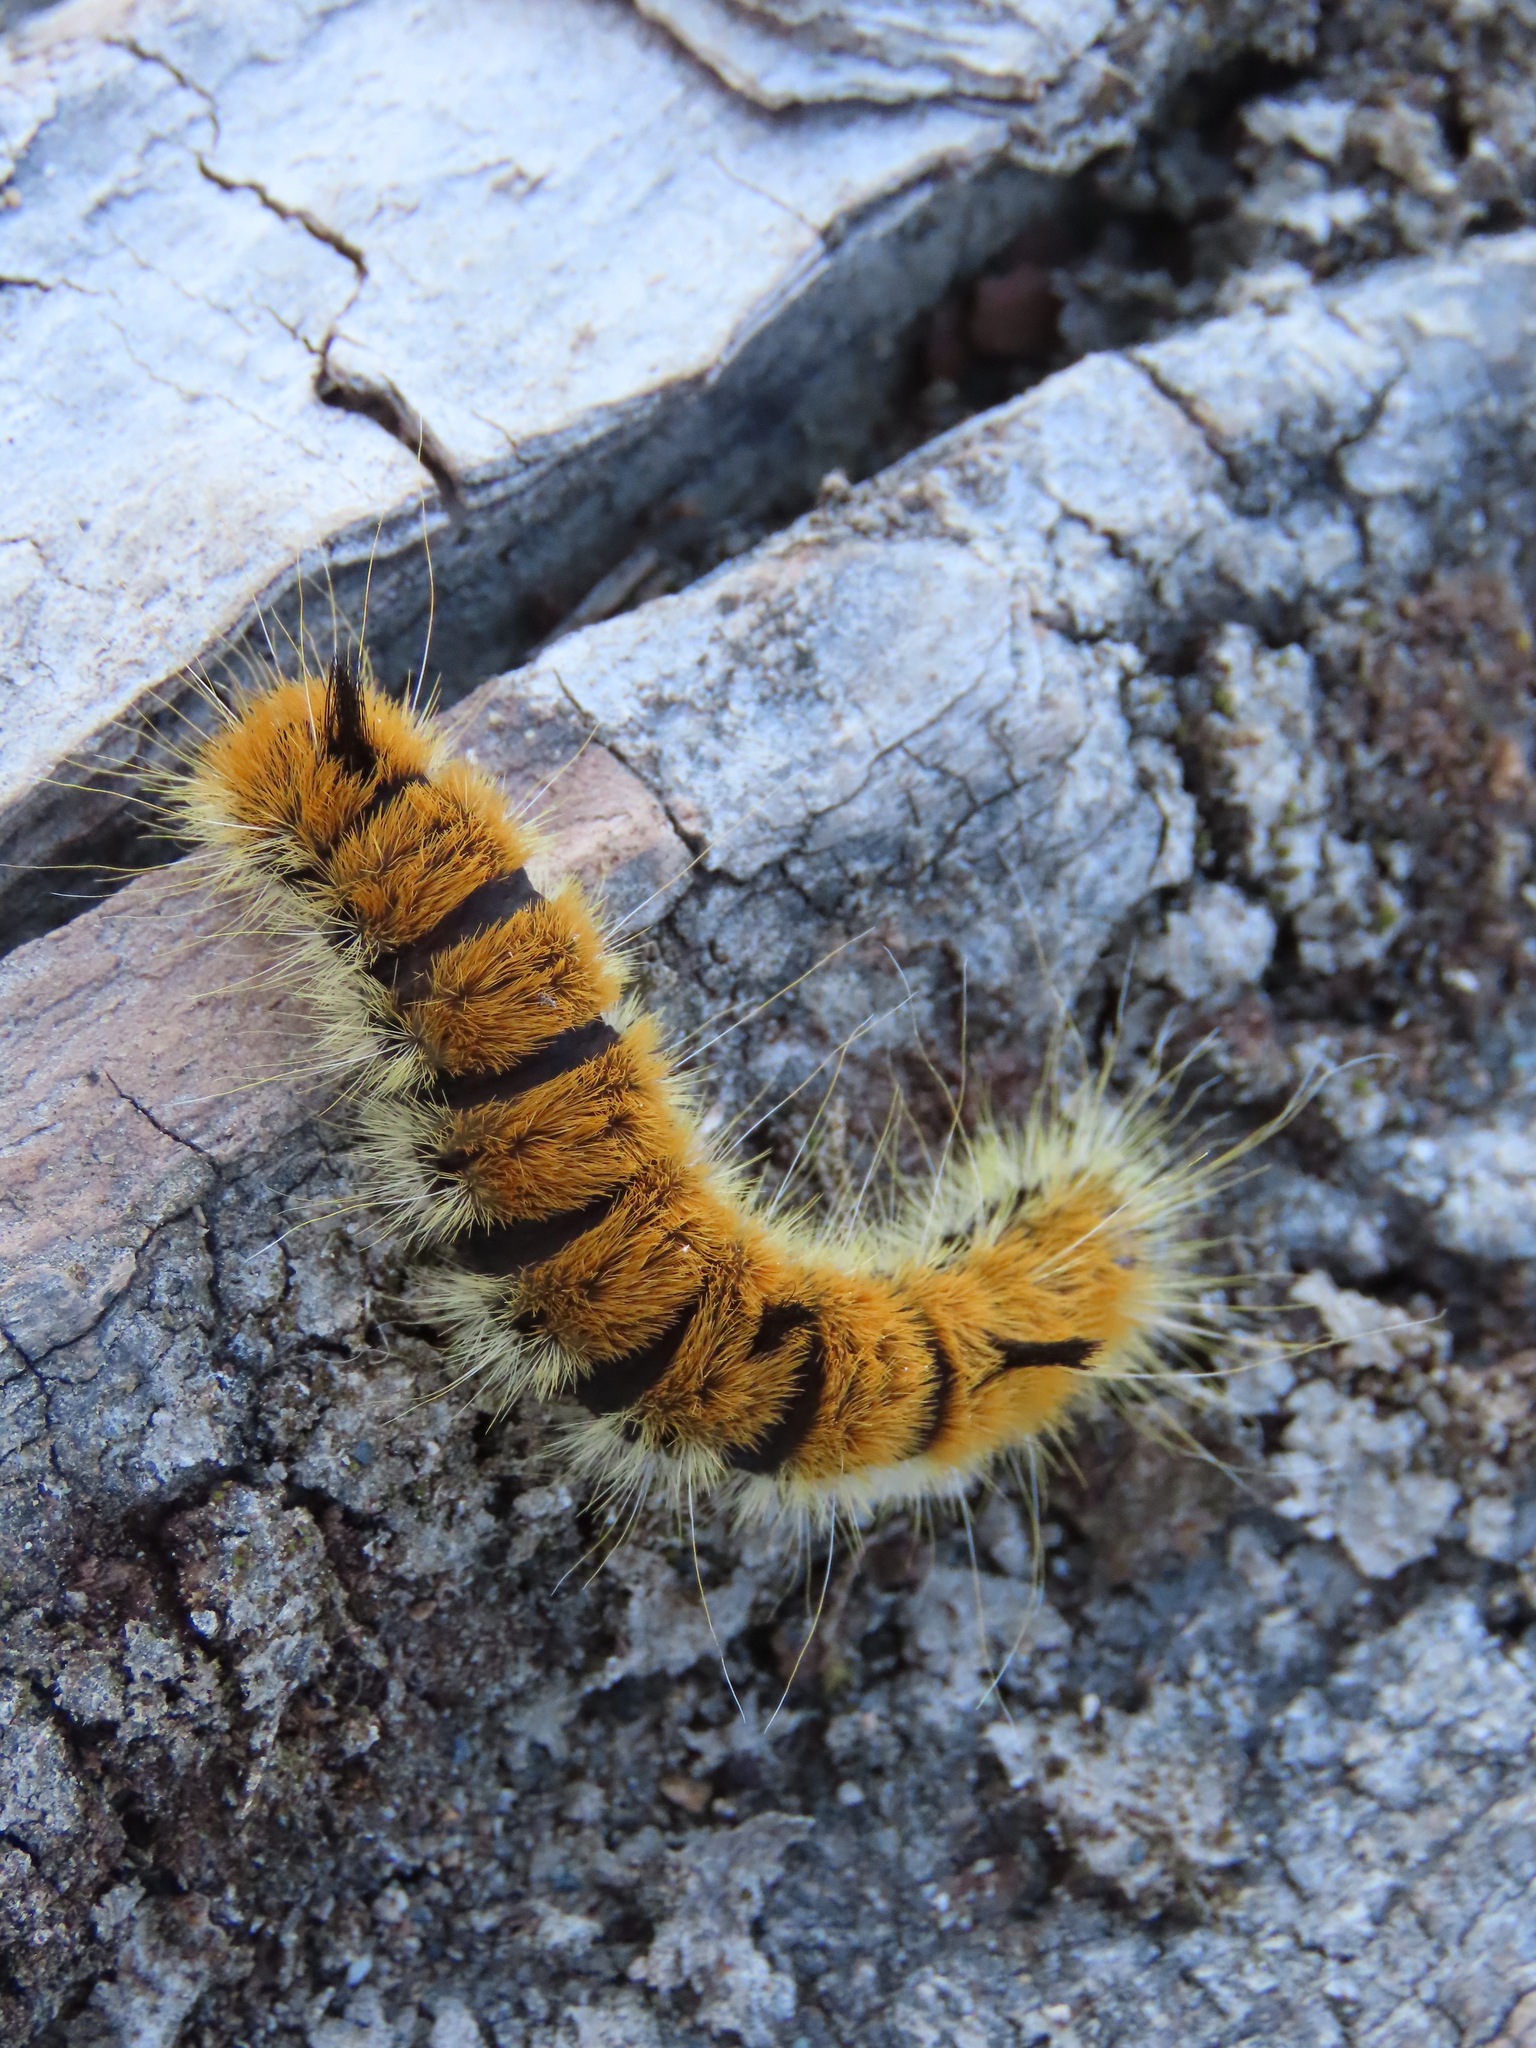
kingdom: Animalia
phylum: Arthropoda
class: Insecta
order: Lepidoptera
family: Noctuidae
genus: Acronicta
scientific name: Acronicta insita
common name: Large gray dagger
